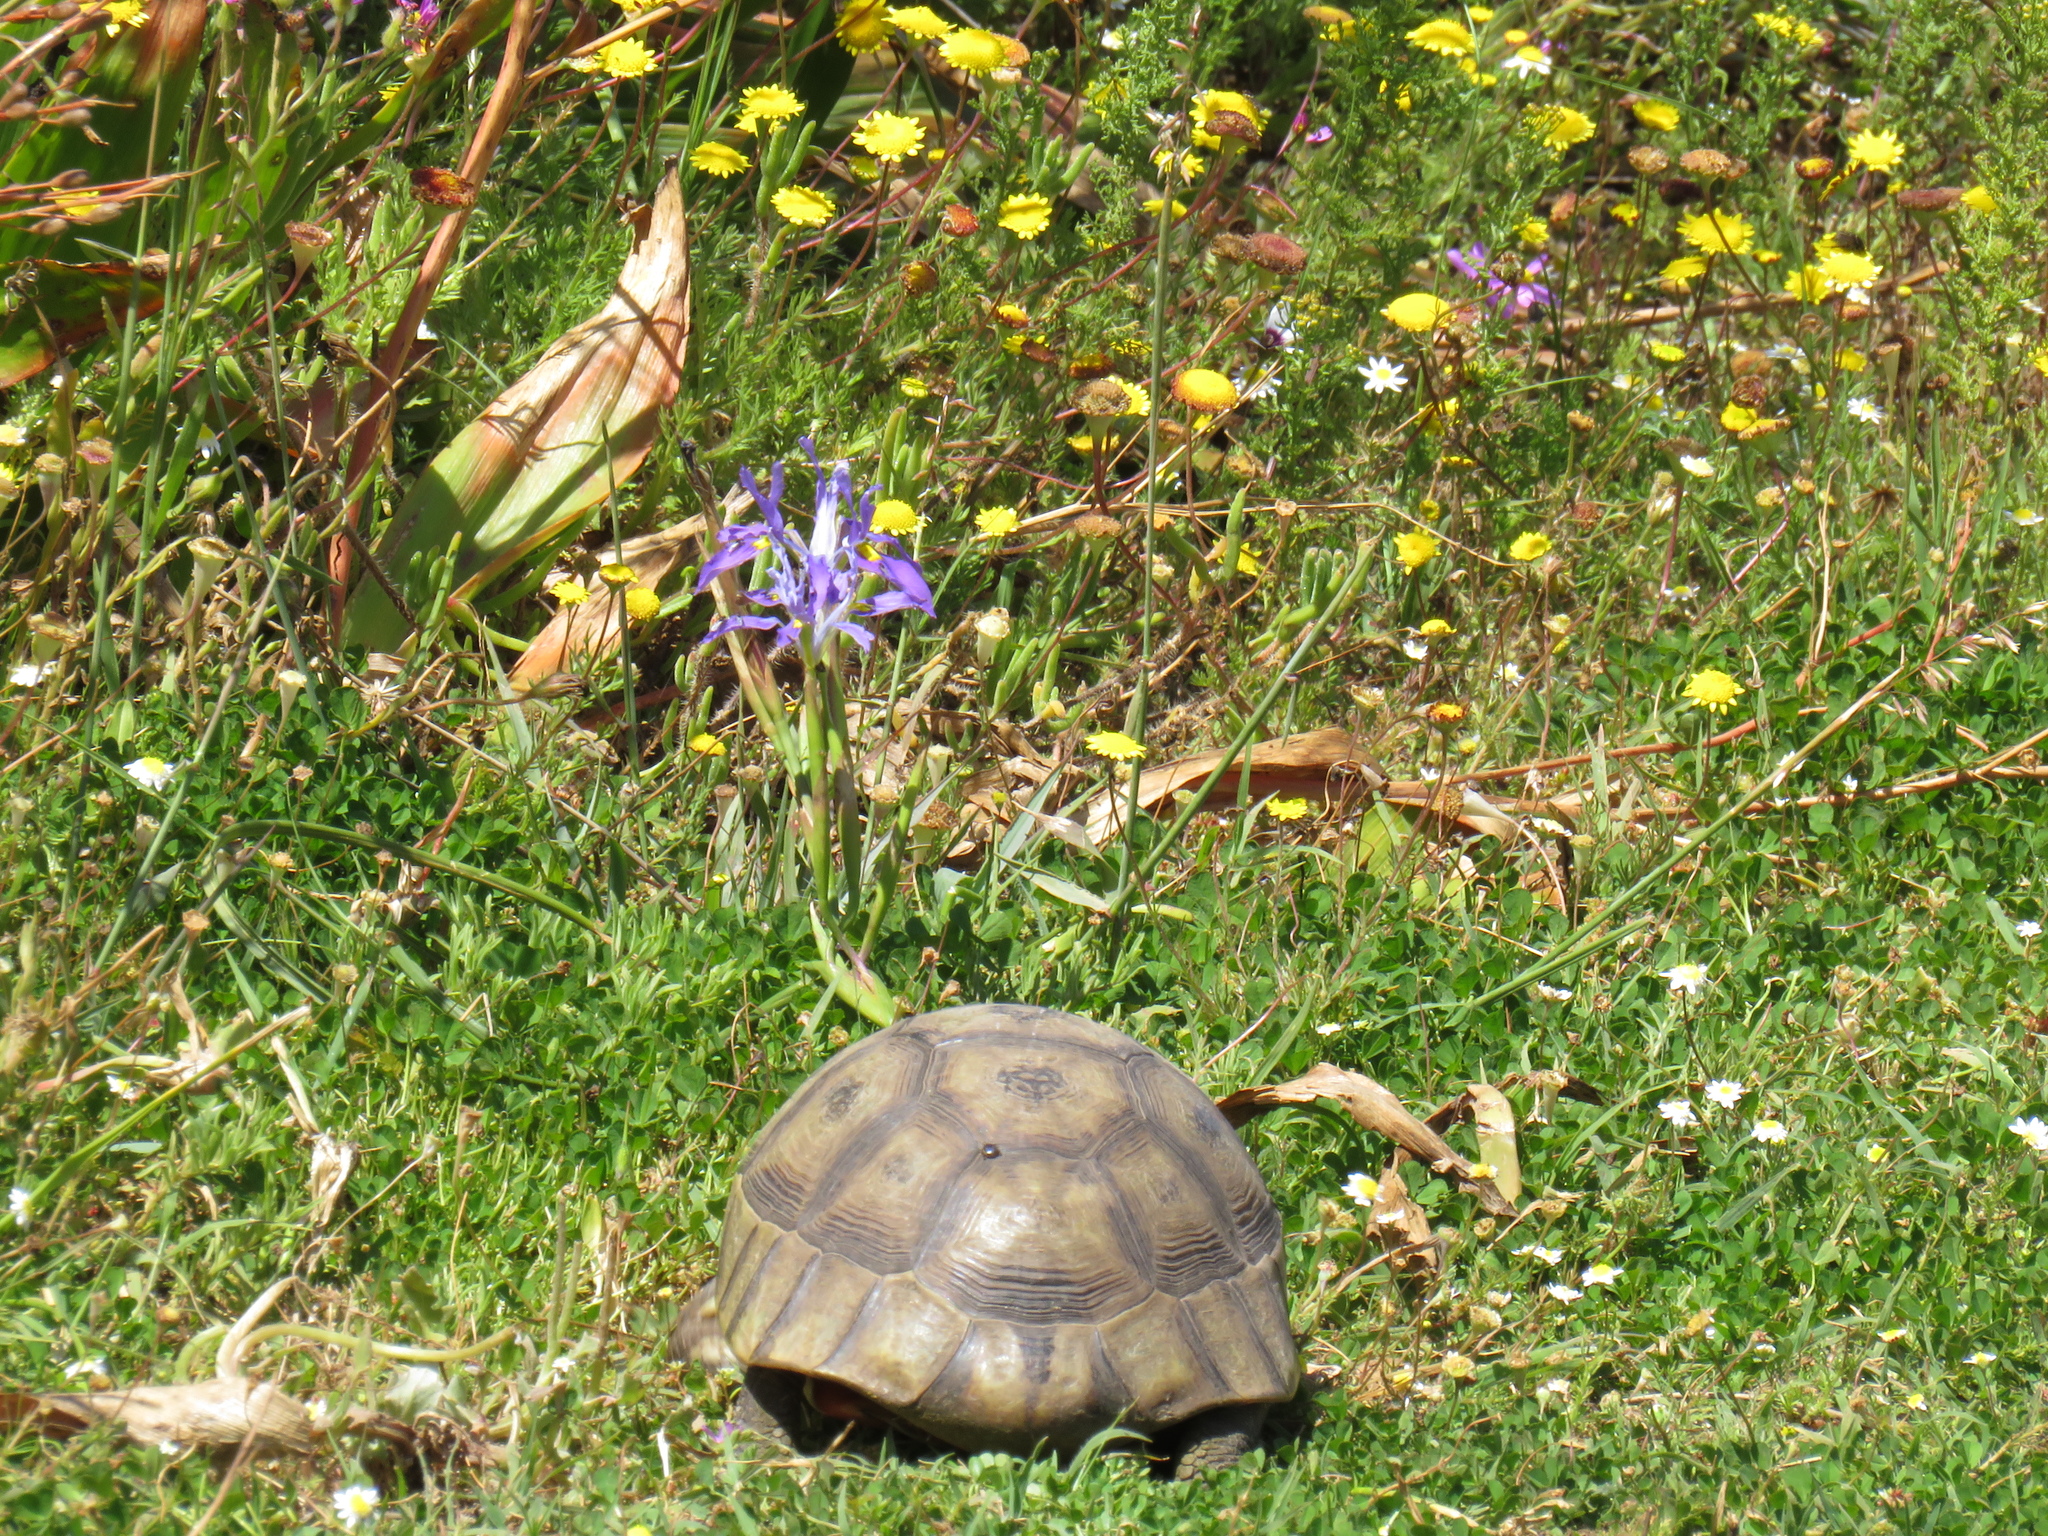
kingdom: Animalia
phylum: Chordata
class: Testudines
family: Testudinidae
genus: Chersina
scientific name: Chersina angulata
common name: South african bowsprit tortoise
